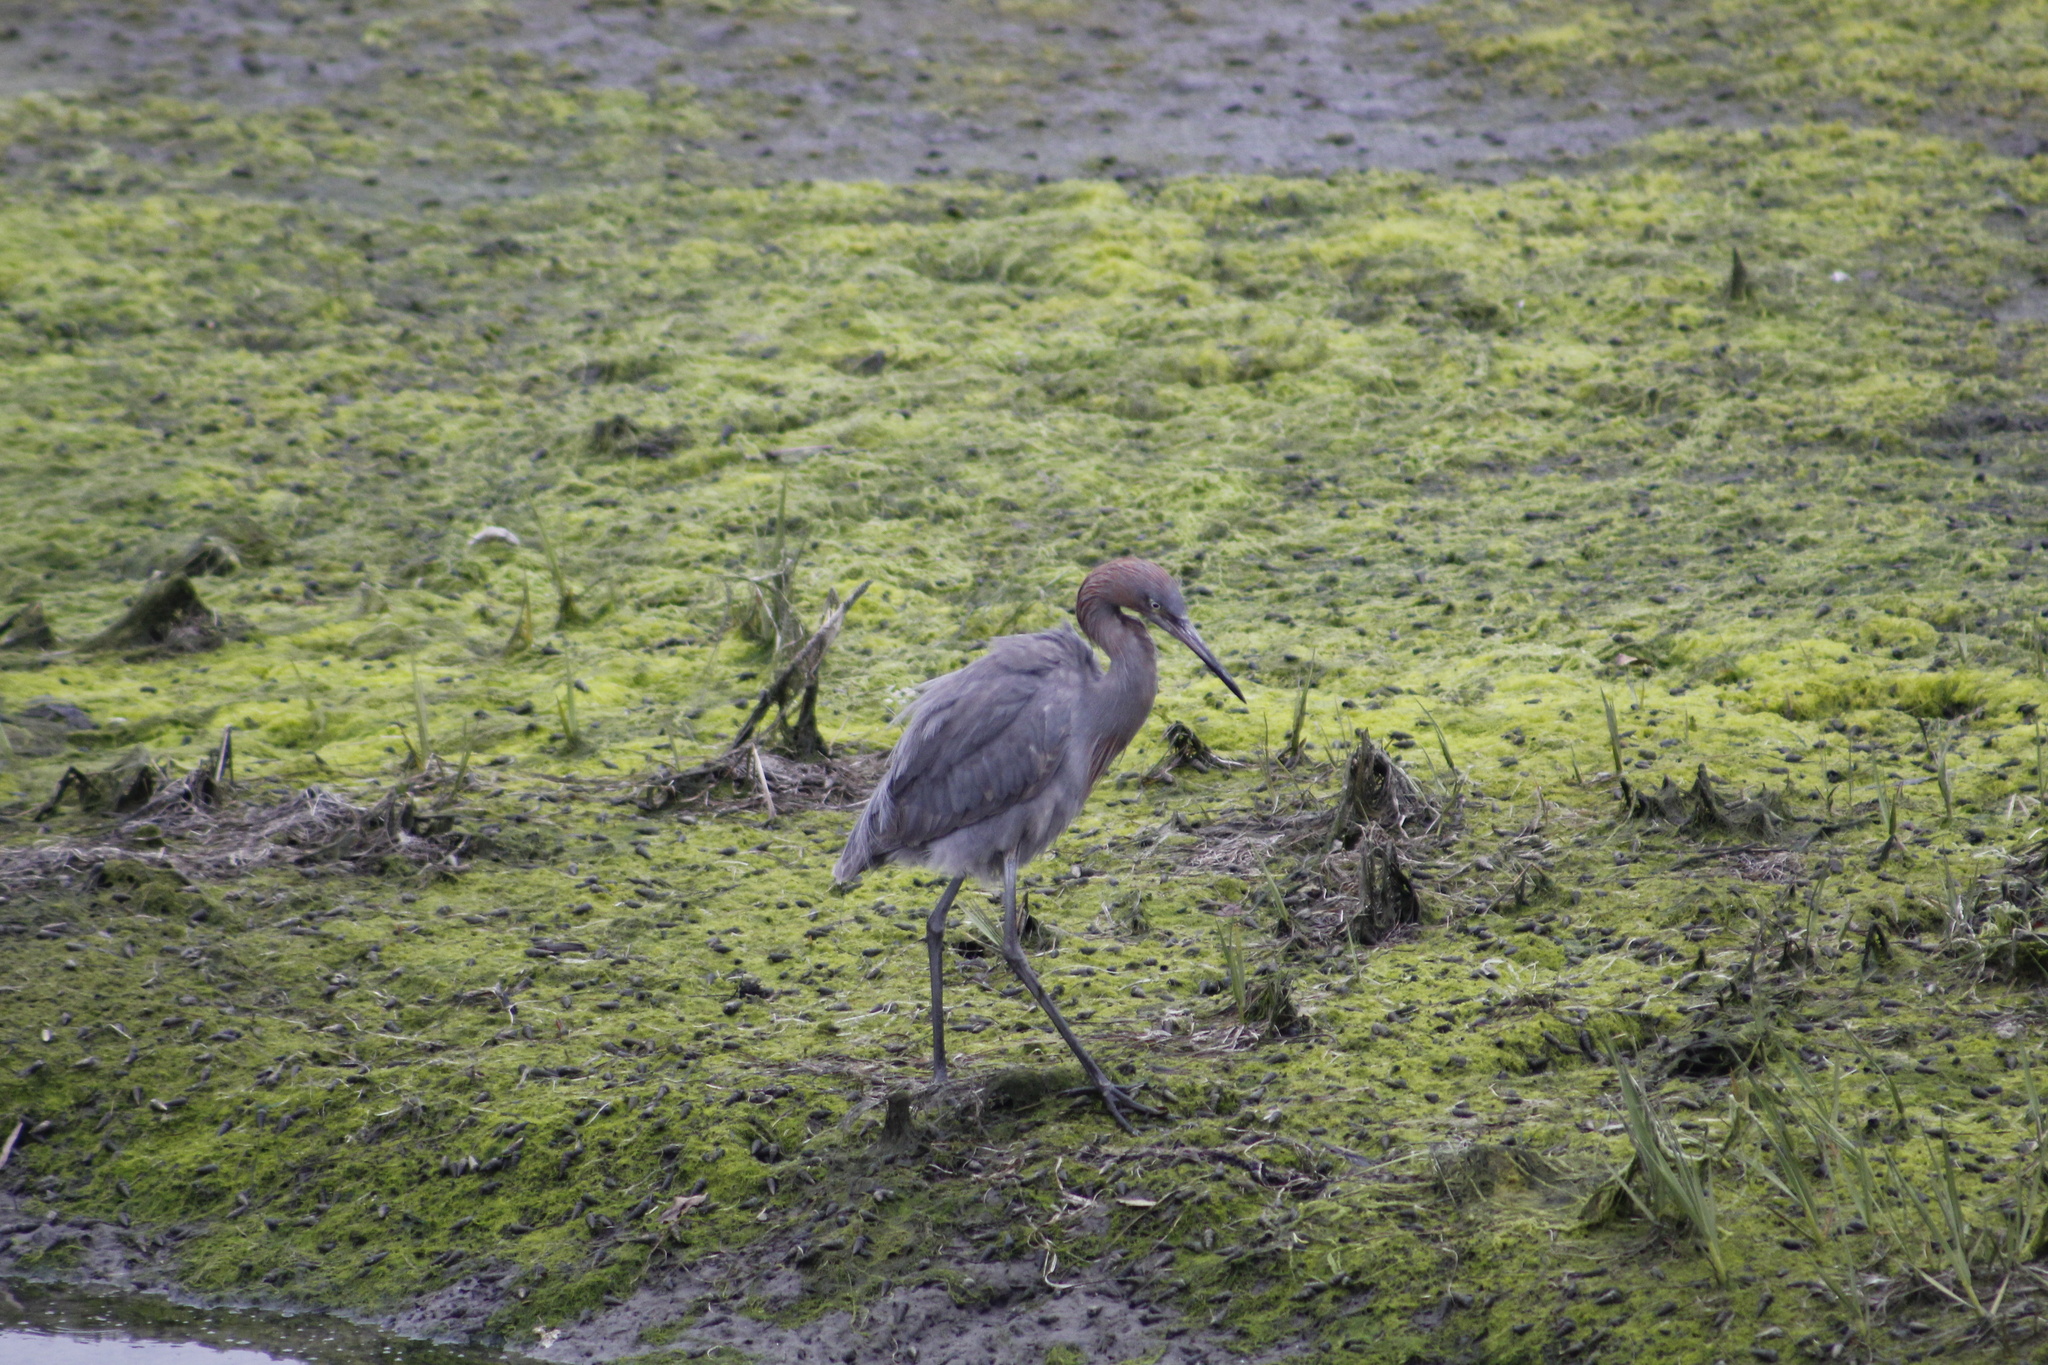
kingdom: Animalia
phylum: Chordata
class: Aves
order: Pelecaniformes
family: Ardeidae
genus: Egretta
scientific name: Egretta rufescens
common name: Reddish egret
